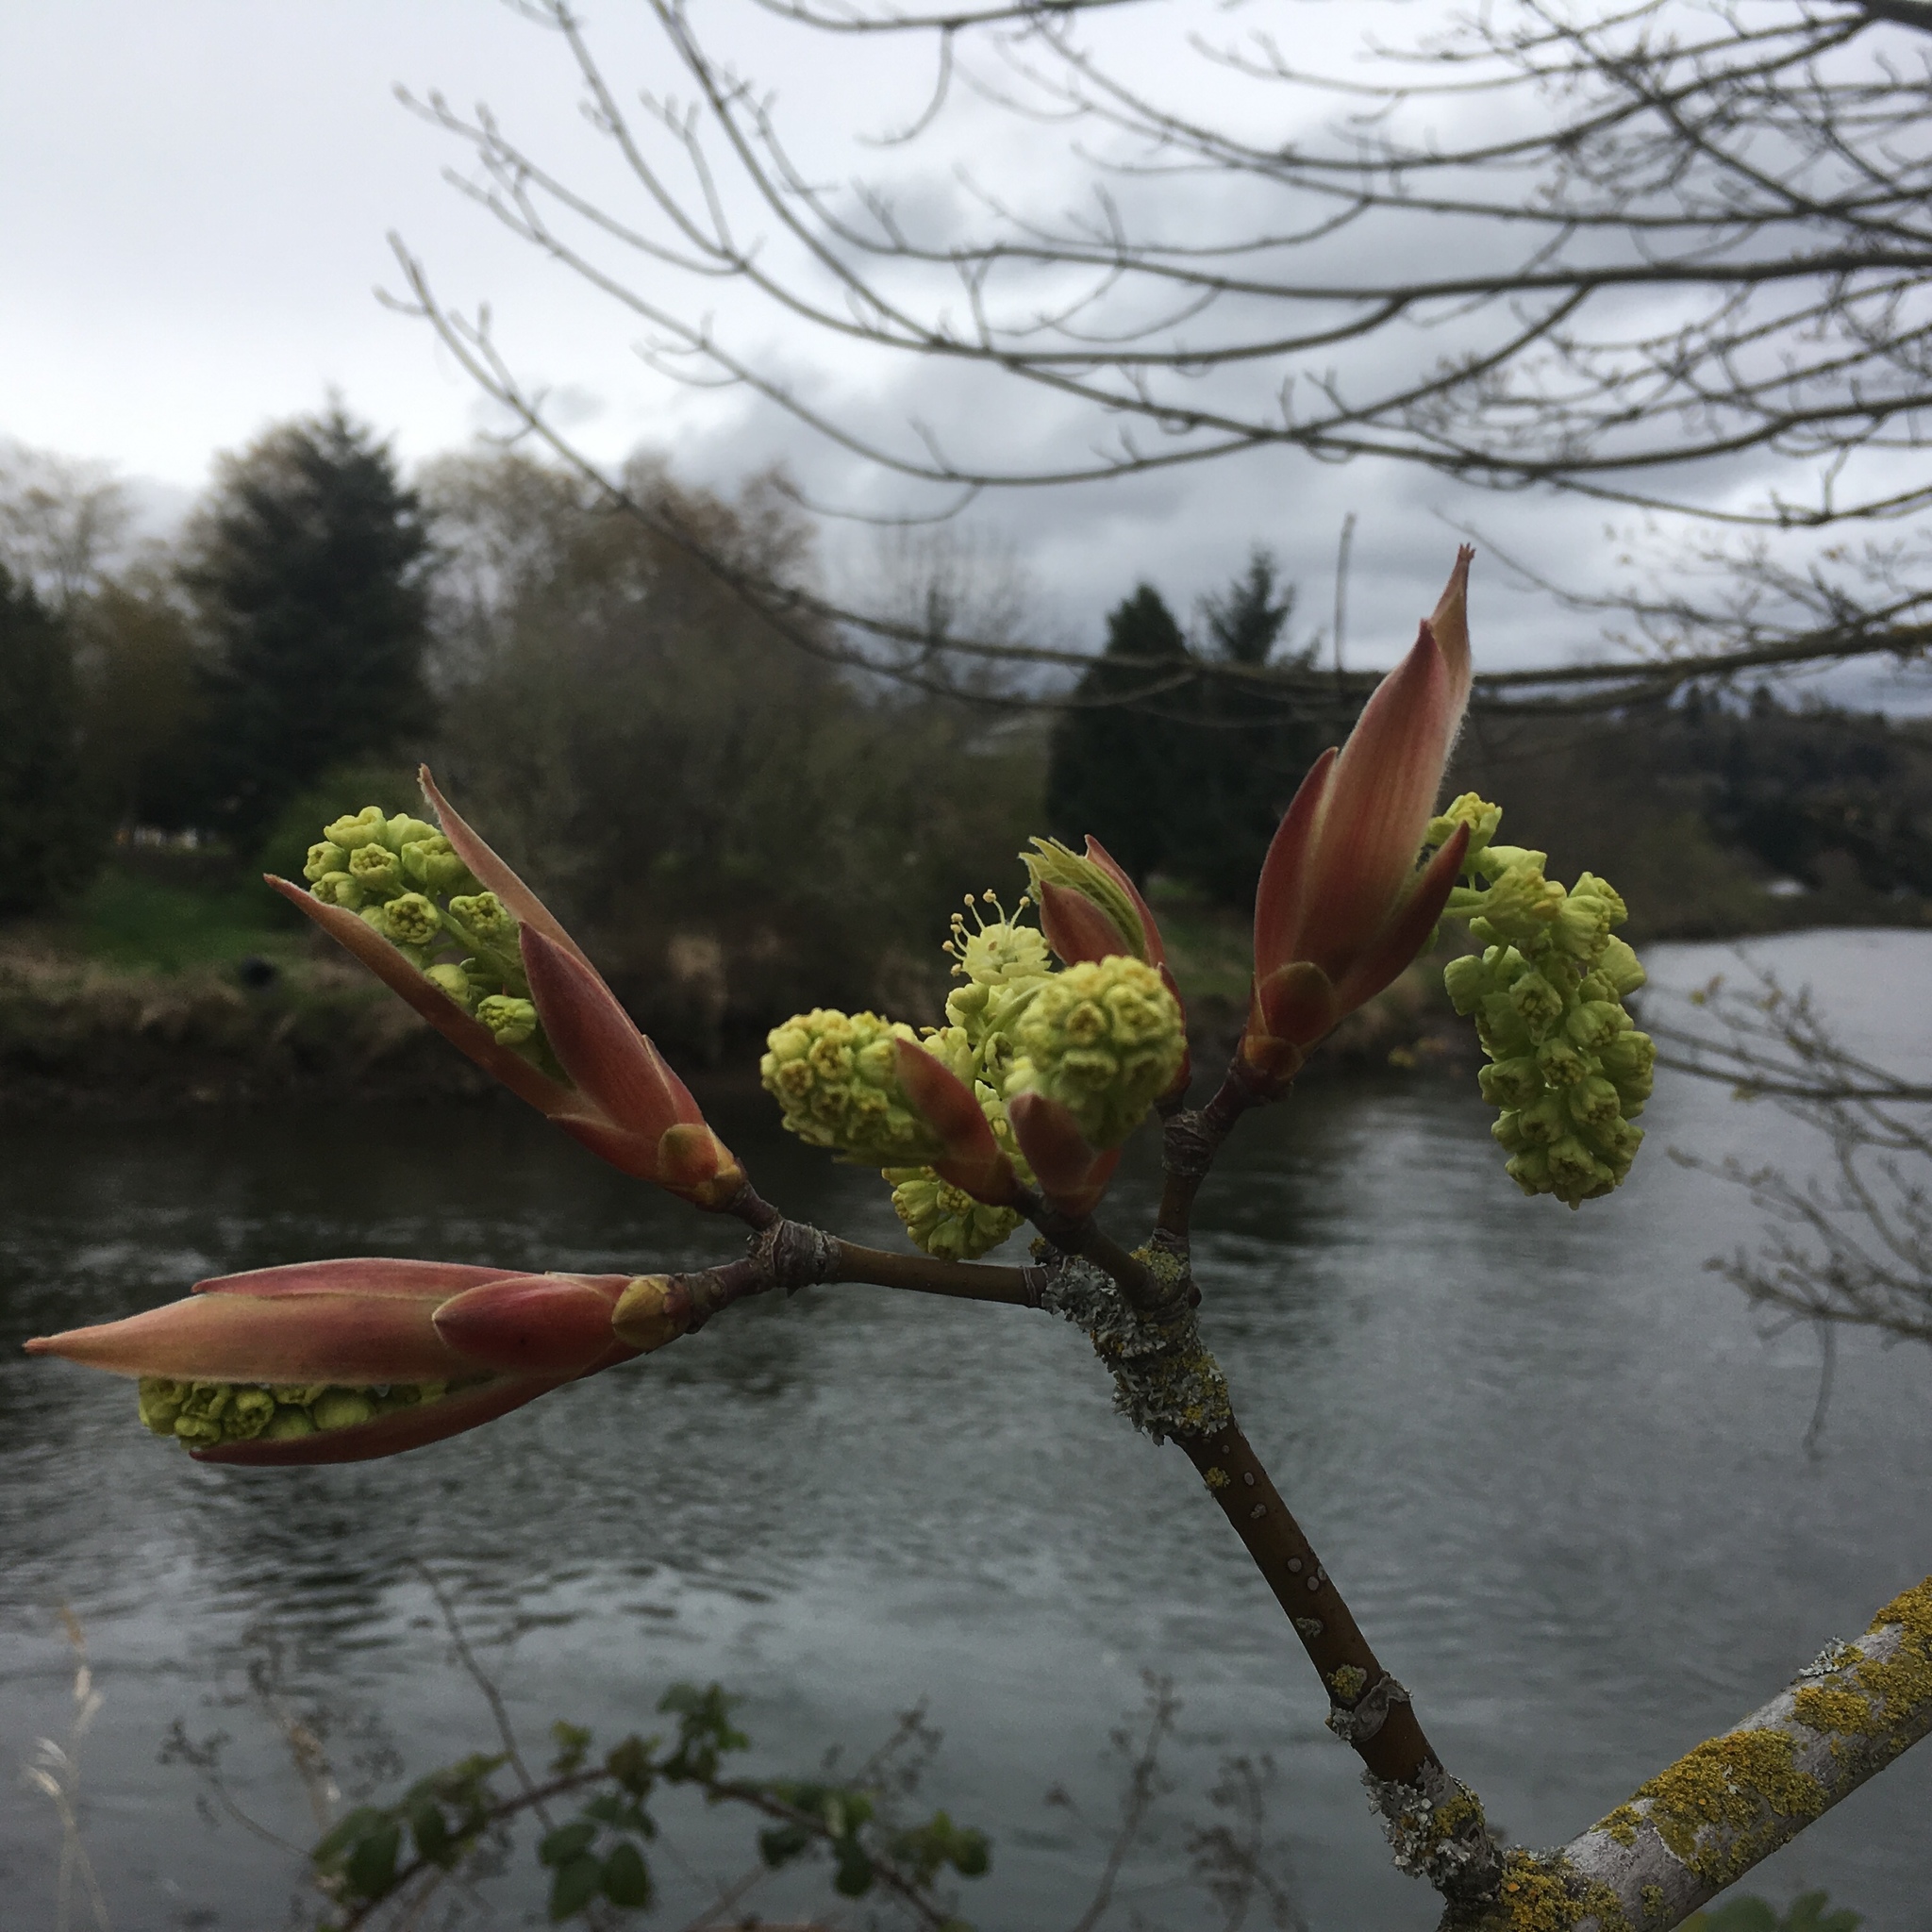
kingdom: Plantae
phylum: Tracheophyta
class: Magnoliopsida
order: Sapindales
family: Sapindaceae
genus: Acer
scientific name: Acer macrophyllum
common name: Oregon maple
